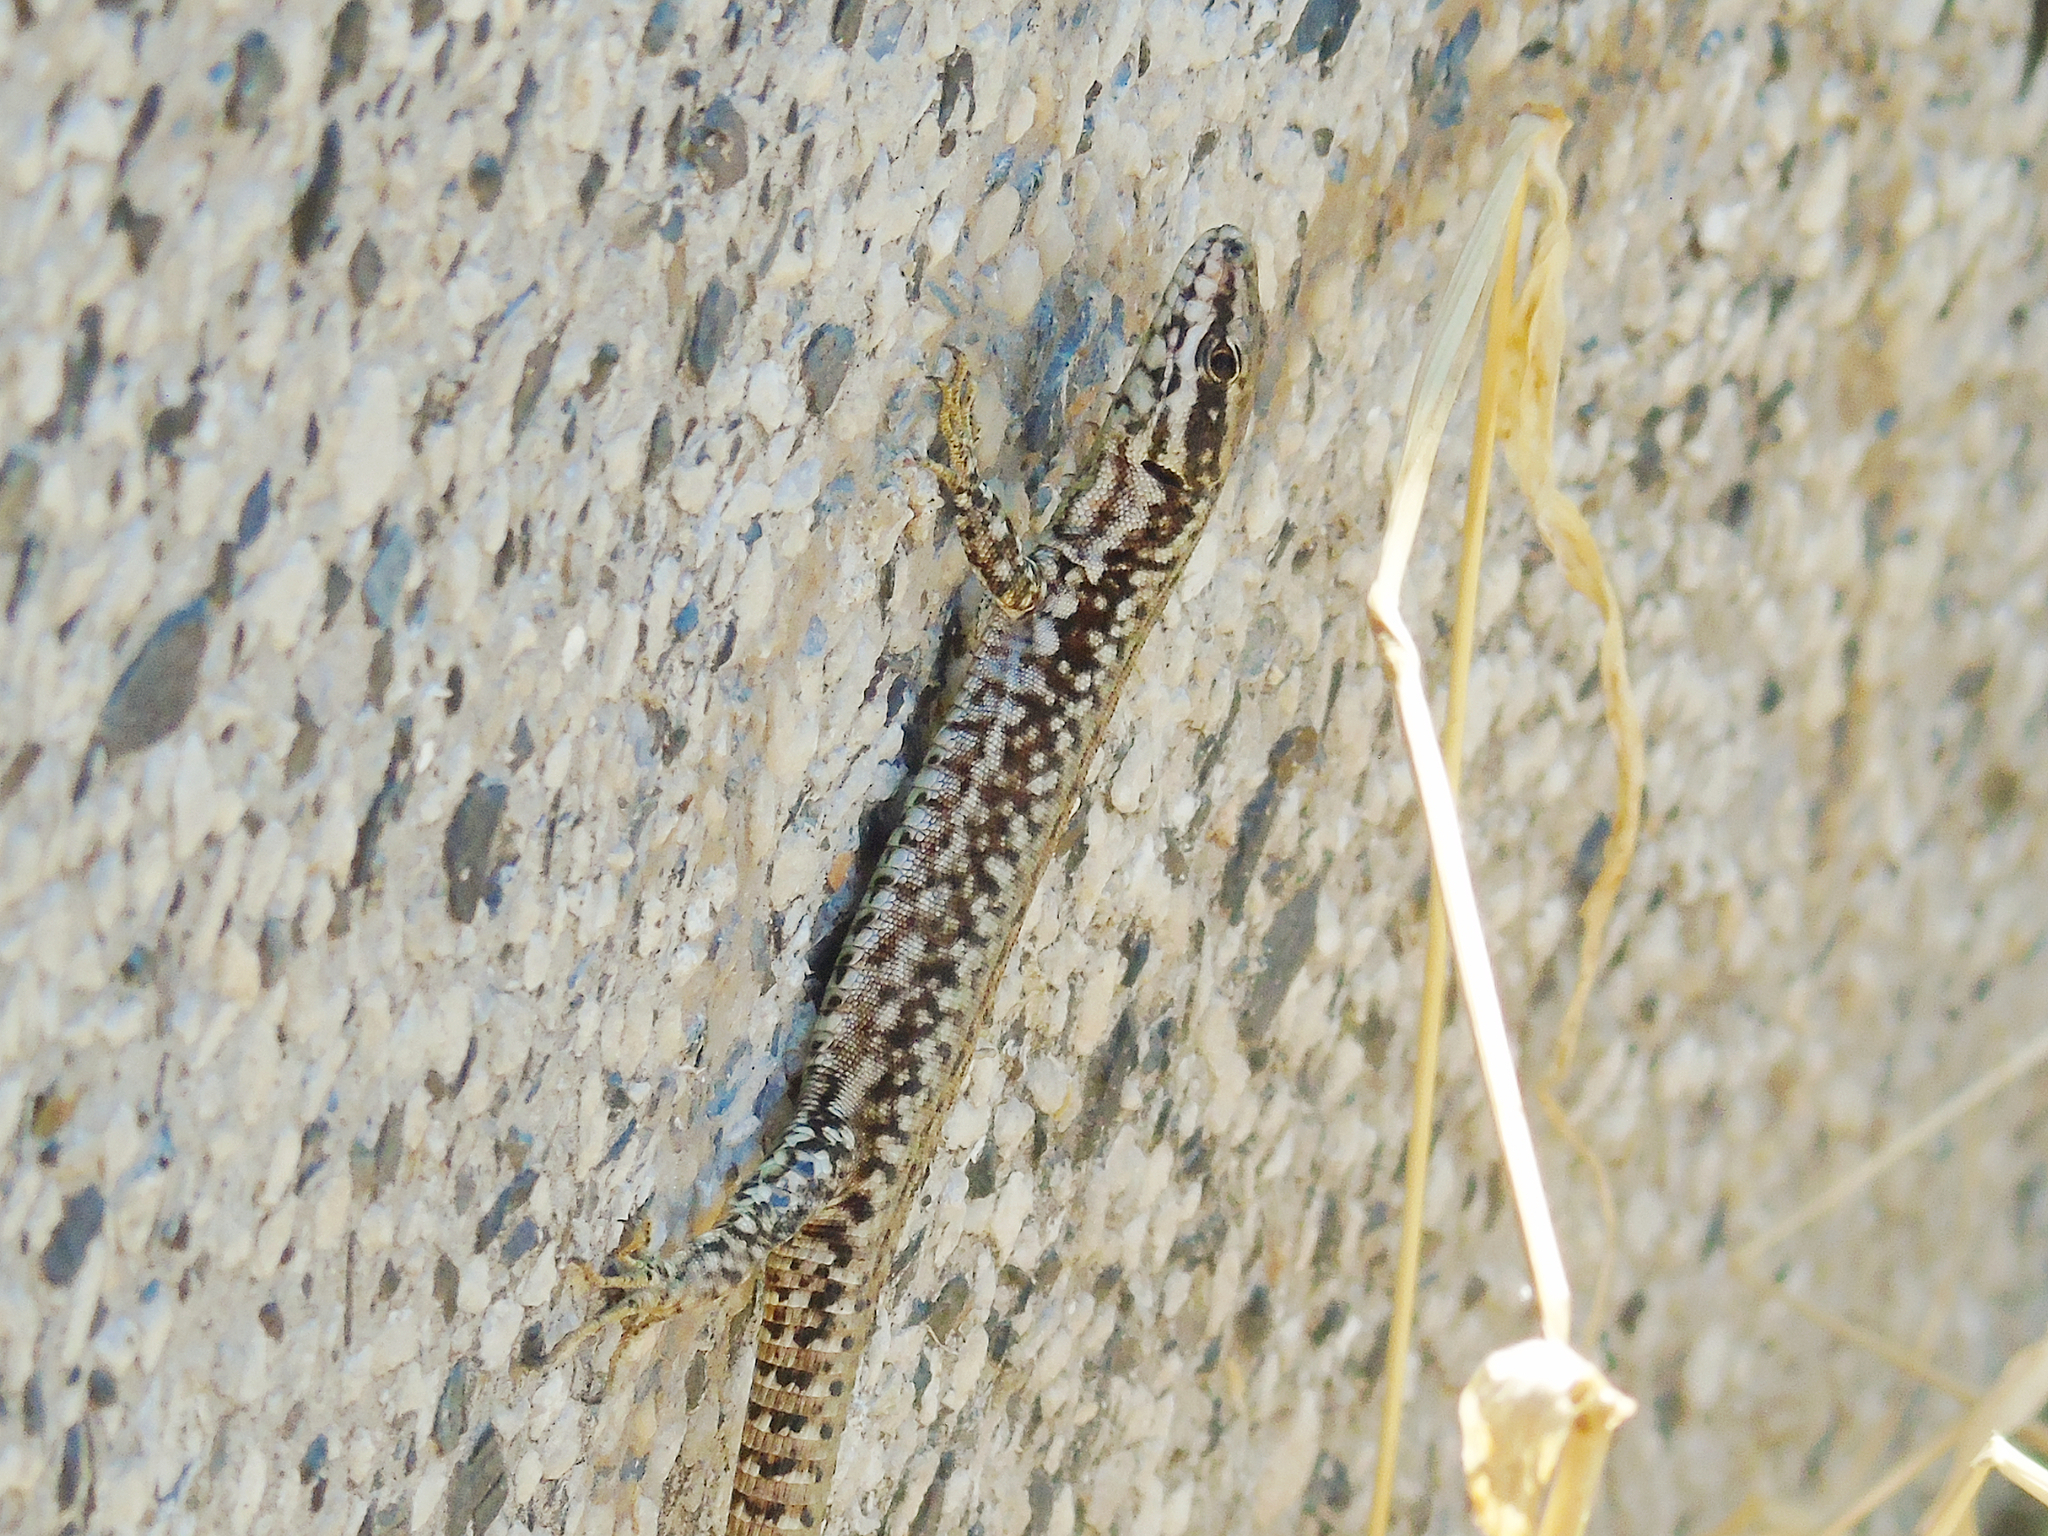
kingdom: Animalia
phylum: Chordata
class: Squamata
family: Lacertidae
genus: Podarcis
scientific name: Podarcis muralis
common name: Common wall lizard
